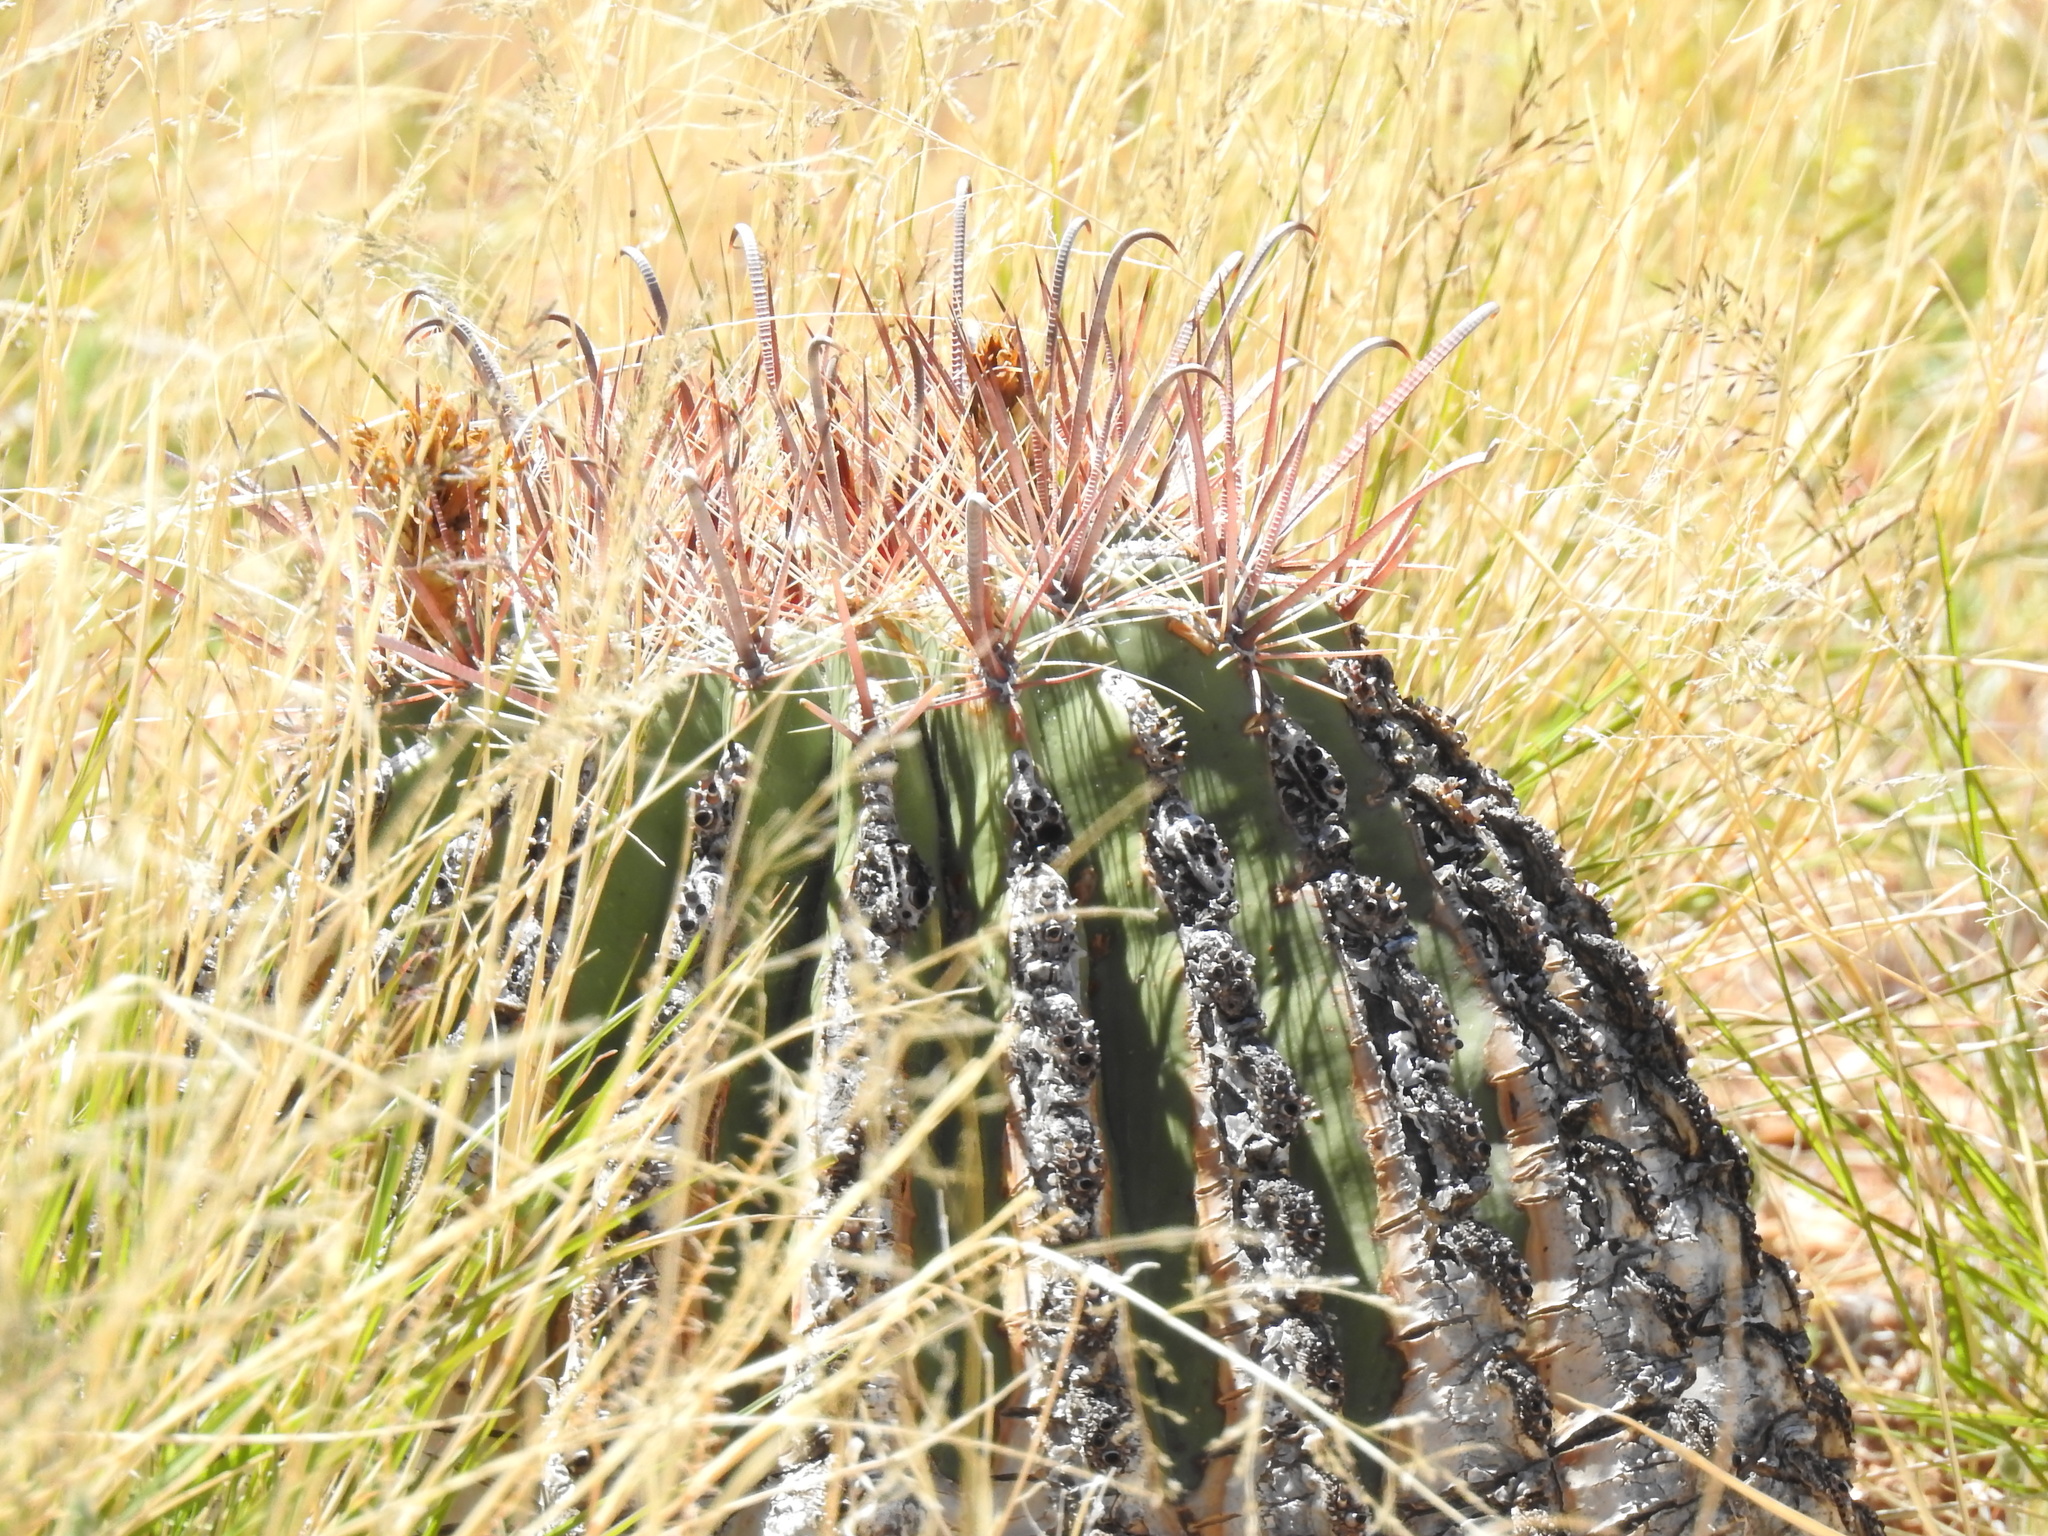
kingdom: Plantae
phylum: Tracheophyta
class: Magnoliopsida
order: Caryophyllales
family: Cactaceae
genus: Ferocactus
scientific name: Ferocactus wislizeni
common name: Candy barrel cactus
